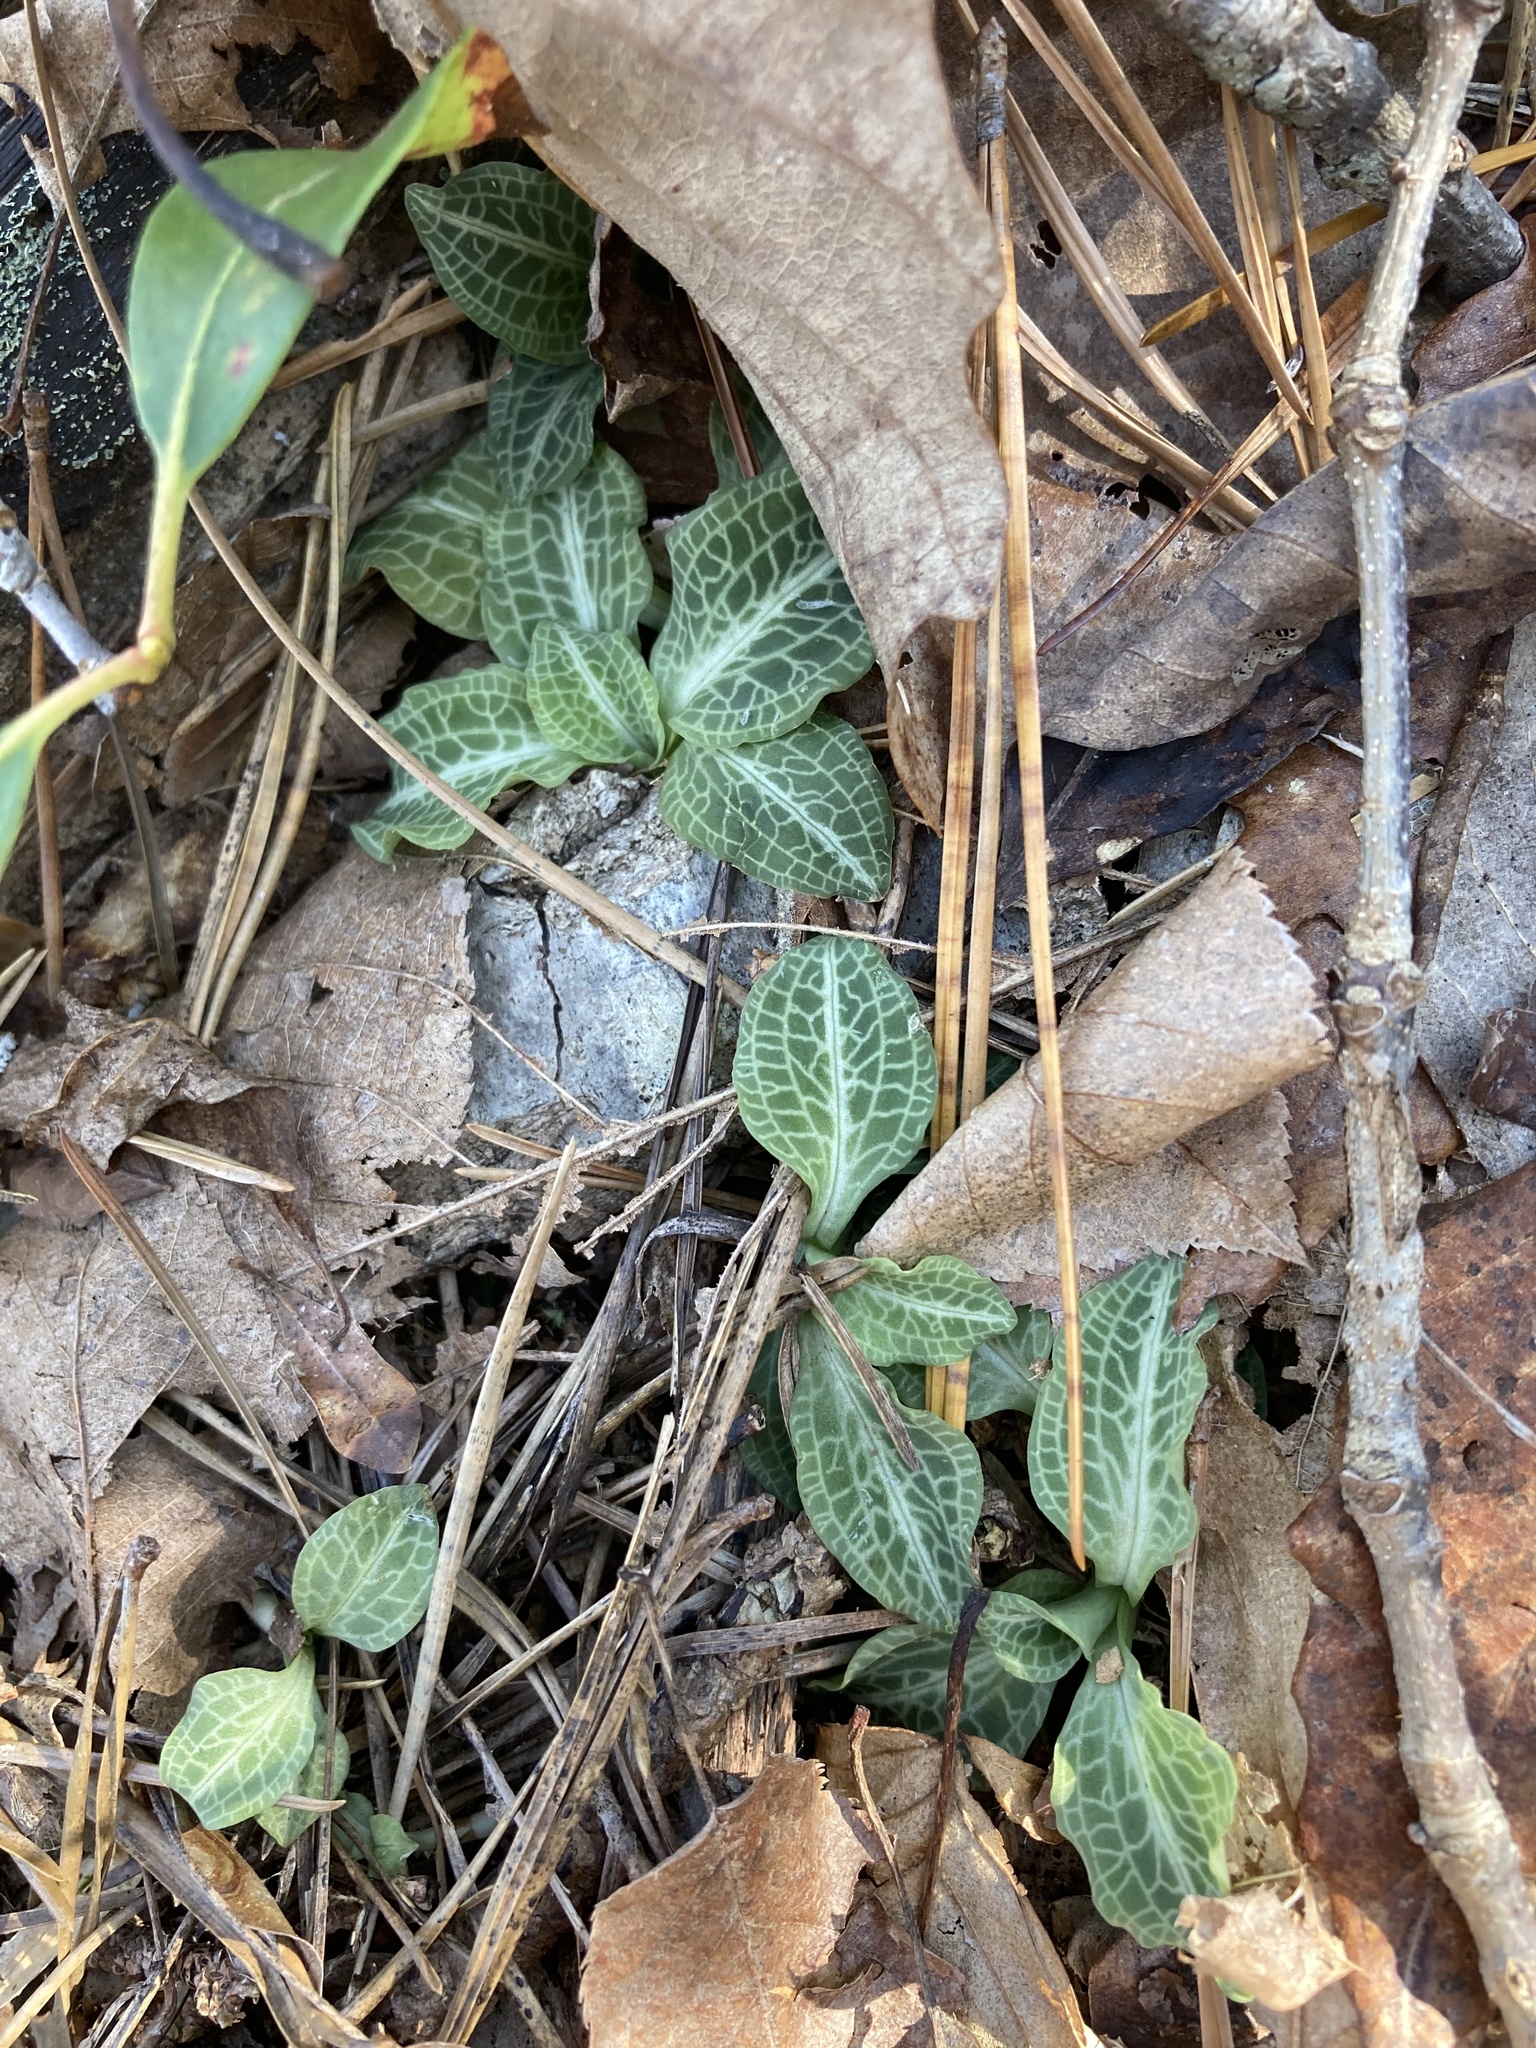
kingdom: Plantae
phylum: Tracheophyta
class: Liliopsida
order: Asparagales
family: Orchidaceae
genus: Goodyera
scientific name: Goodyera pubescens
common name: Downy rattlesnake-plantain
